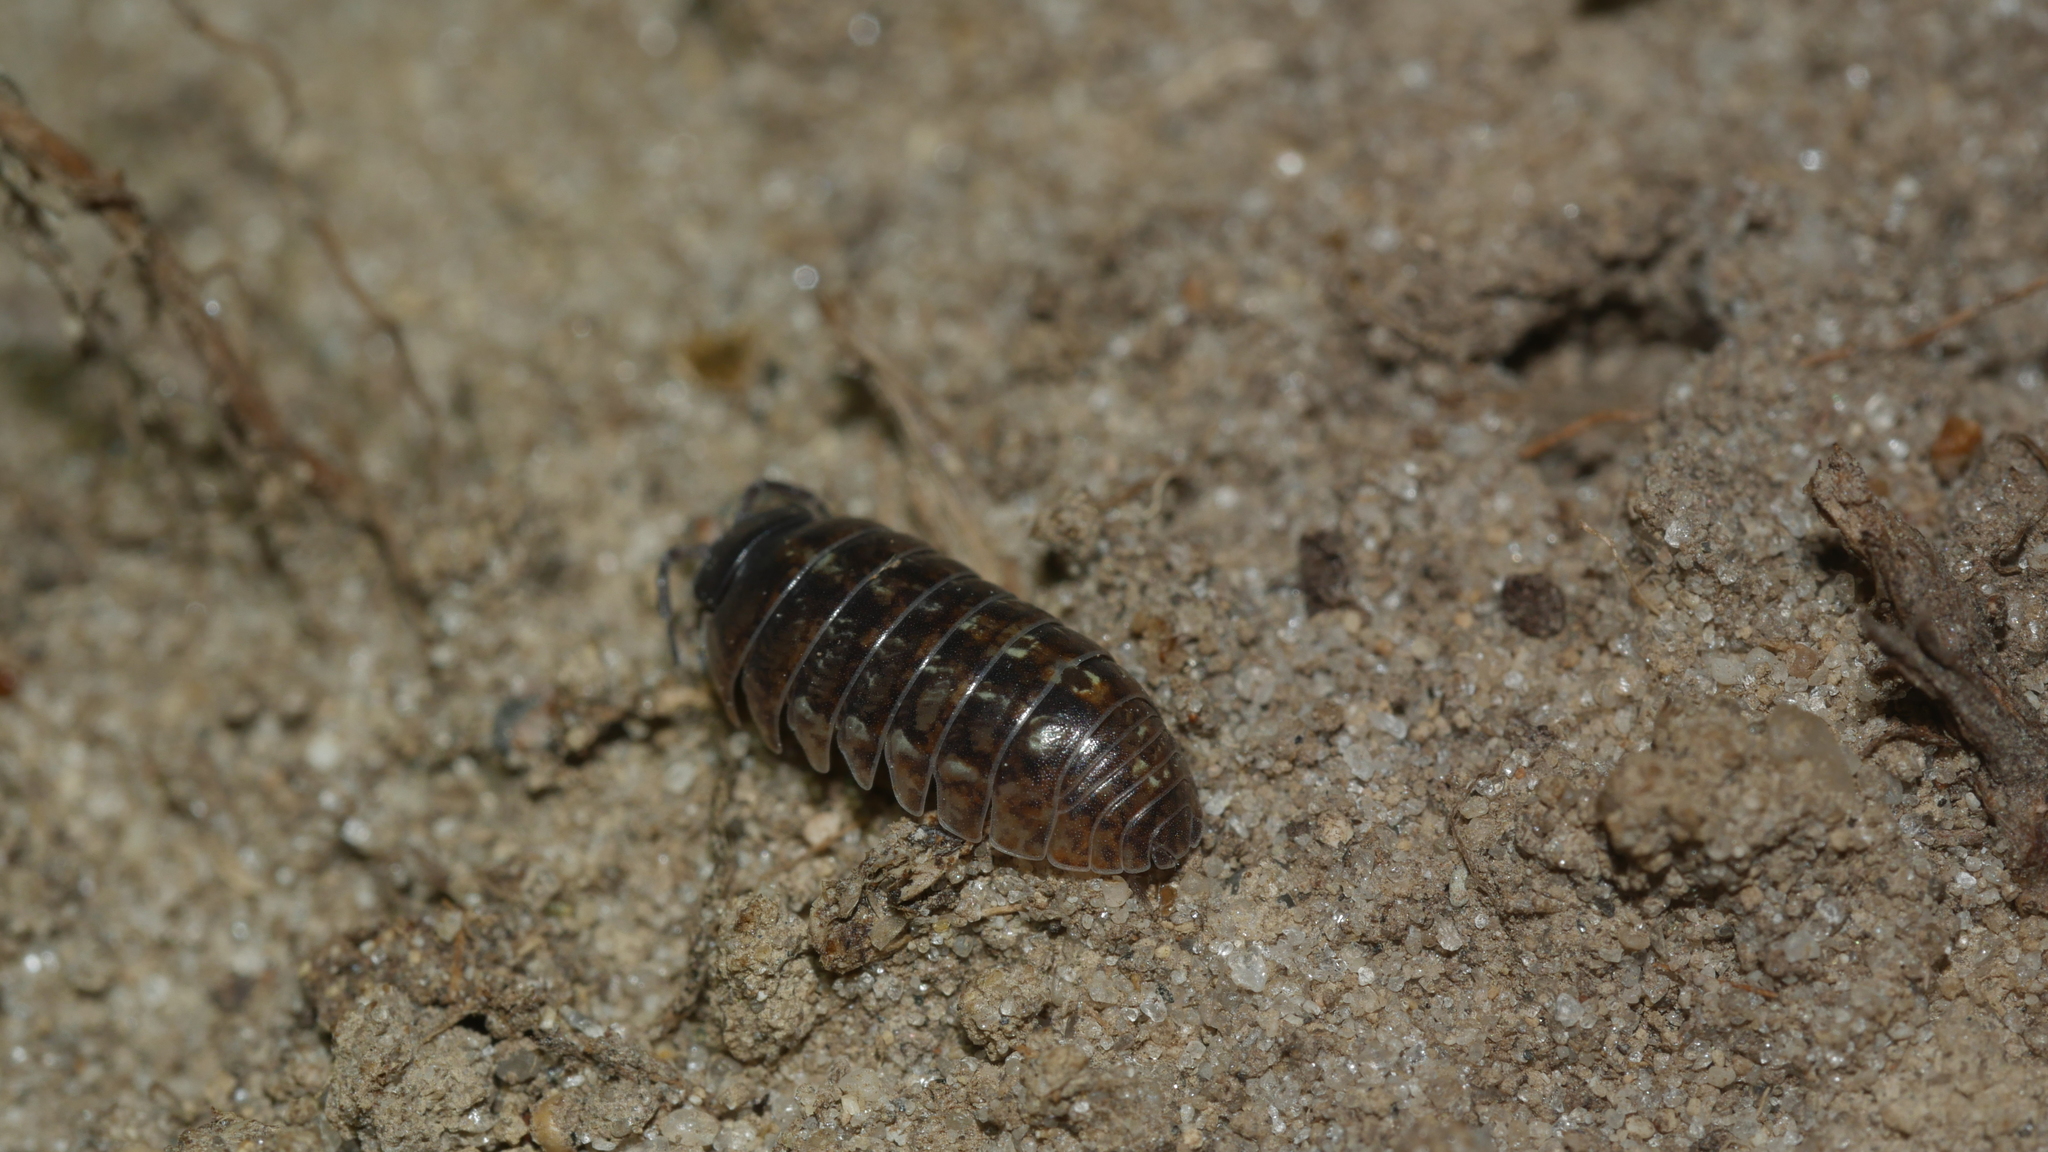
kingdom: Animalia
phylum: Arthropoda
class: Malacostraca
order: Isopoda
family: Armadillidiidae
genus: Armadillidium
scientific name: Armadillidium vulgare
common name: Common pill woodlouse
